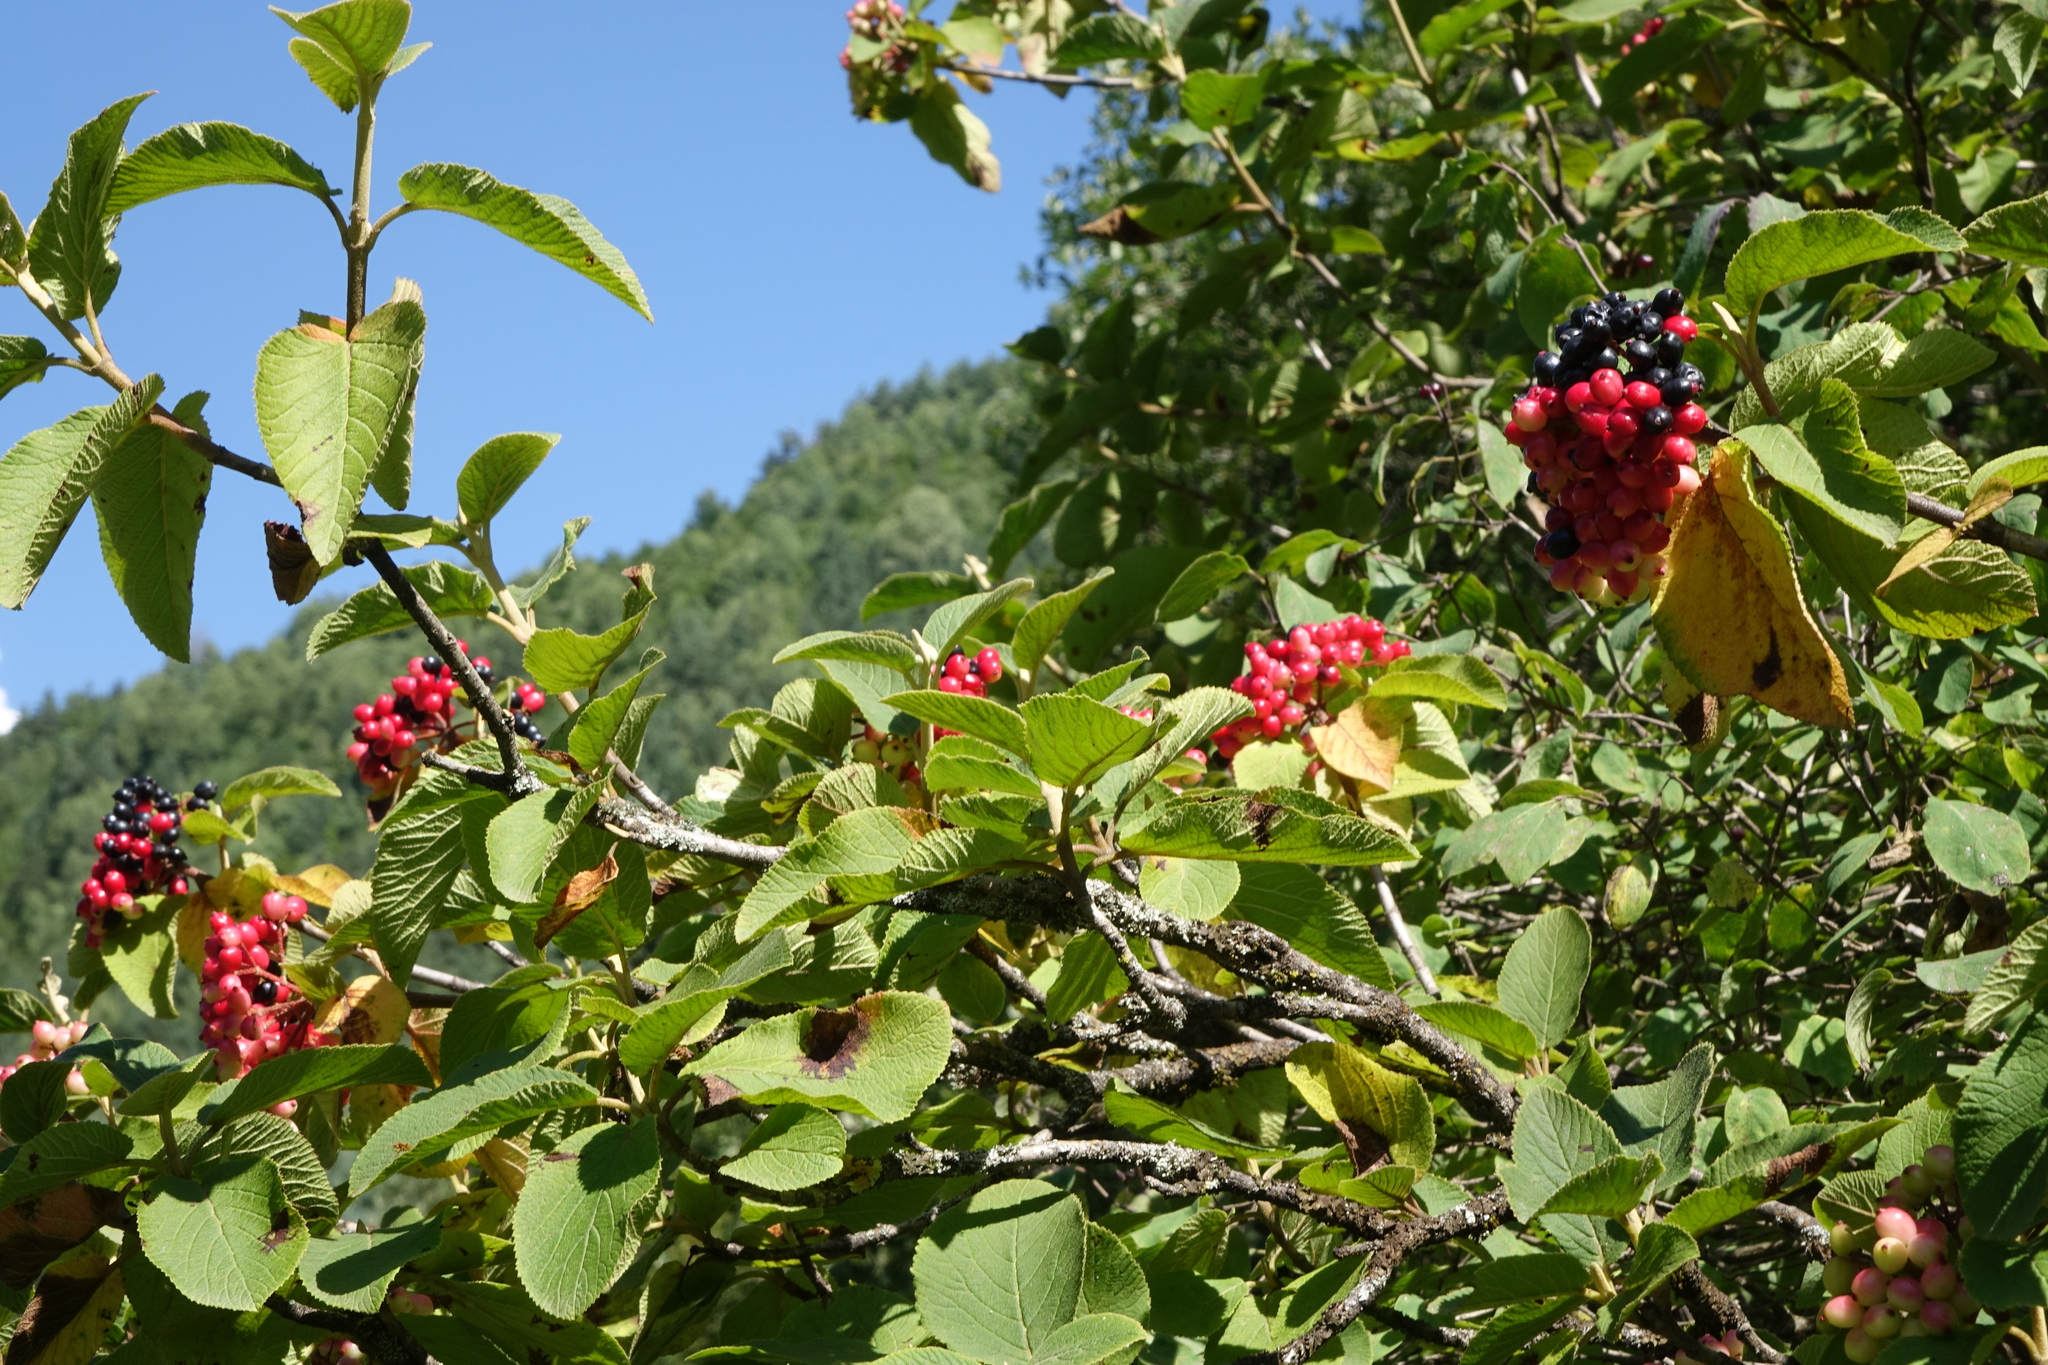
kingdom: Plantae
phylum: Tracheophyta
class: Magnoliopsida
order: Dipsacales
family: Viburnaceae
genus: Viburnum
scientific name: Viburnum lantana
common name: Wayfaring tree
